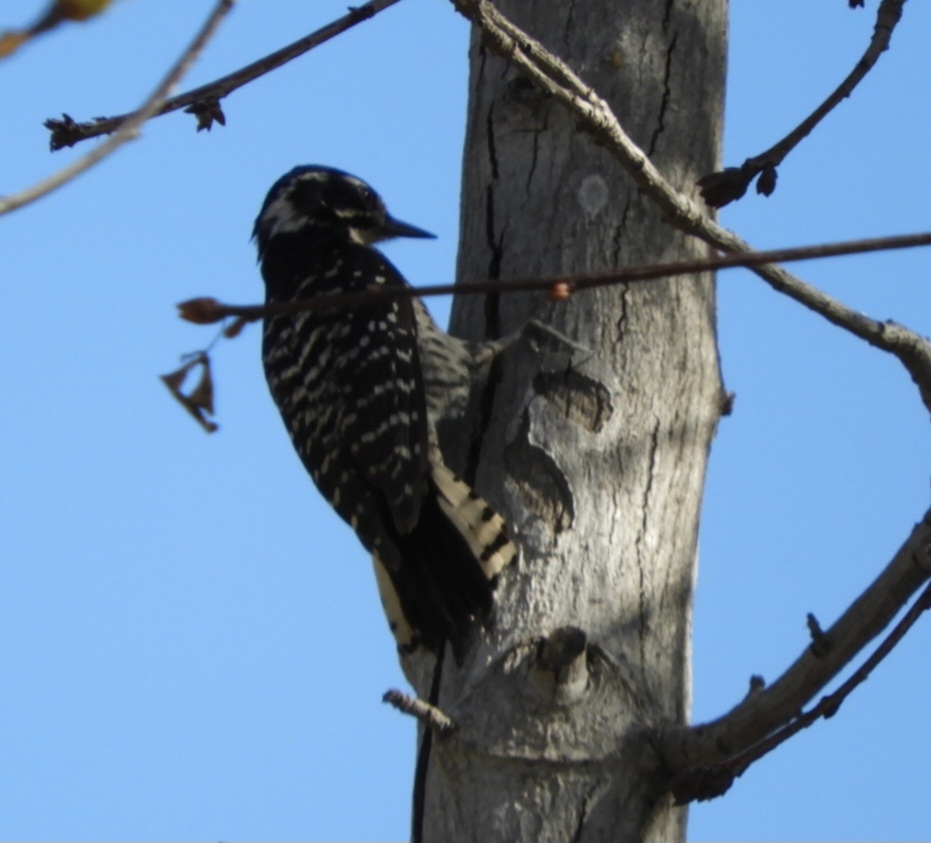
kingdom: Animalia
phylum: Chordata
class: Aves
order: Piciformes
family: Picidae
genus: Dryobates
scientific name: Dryobates nuttallii
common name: Nuttall's woodpecker
